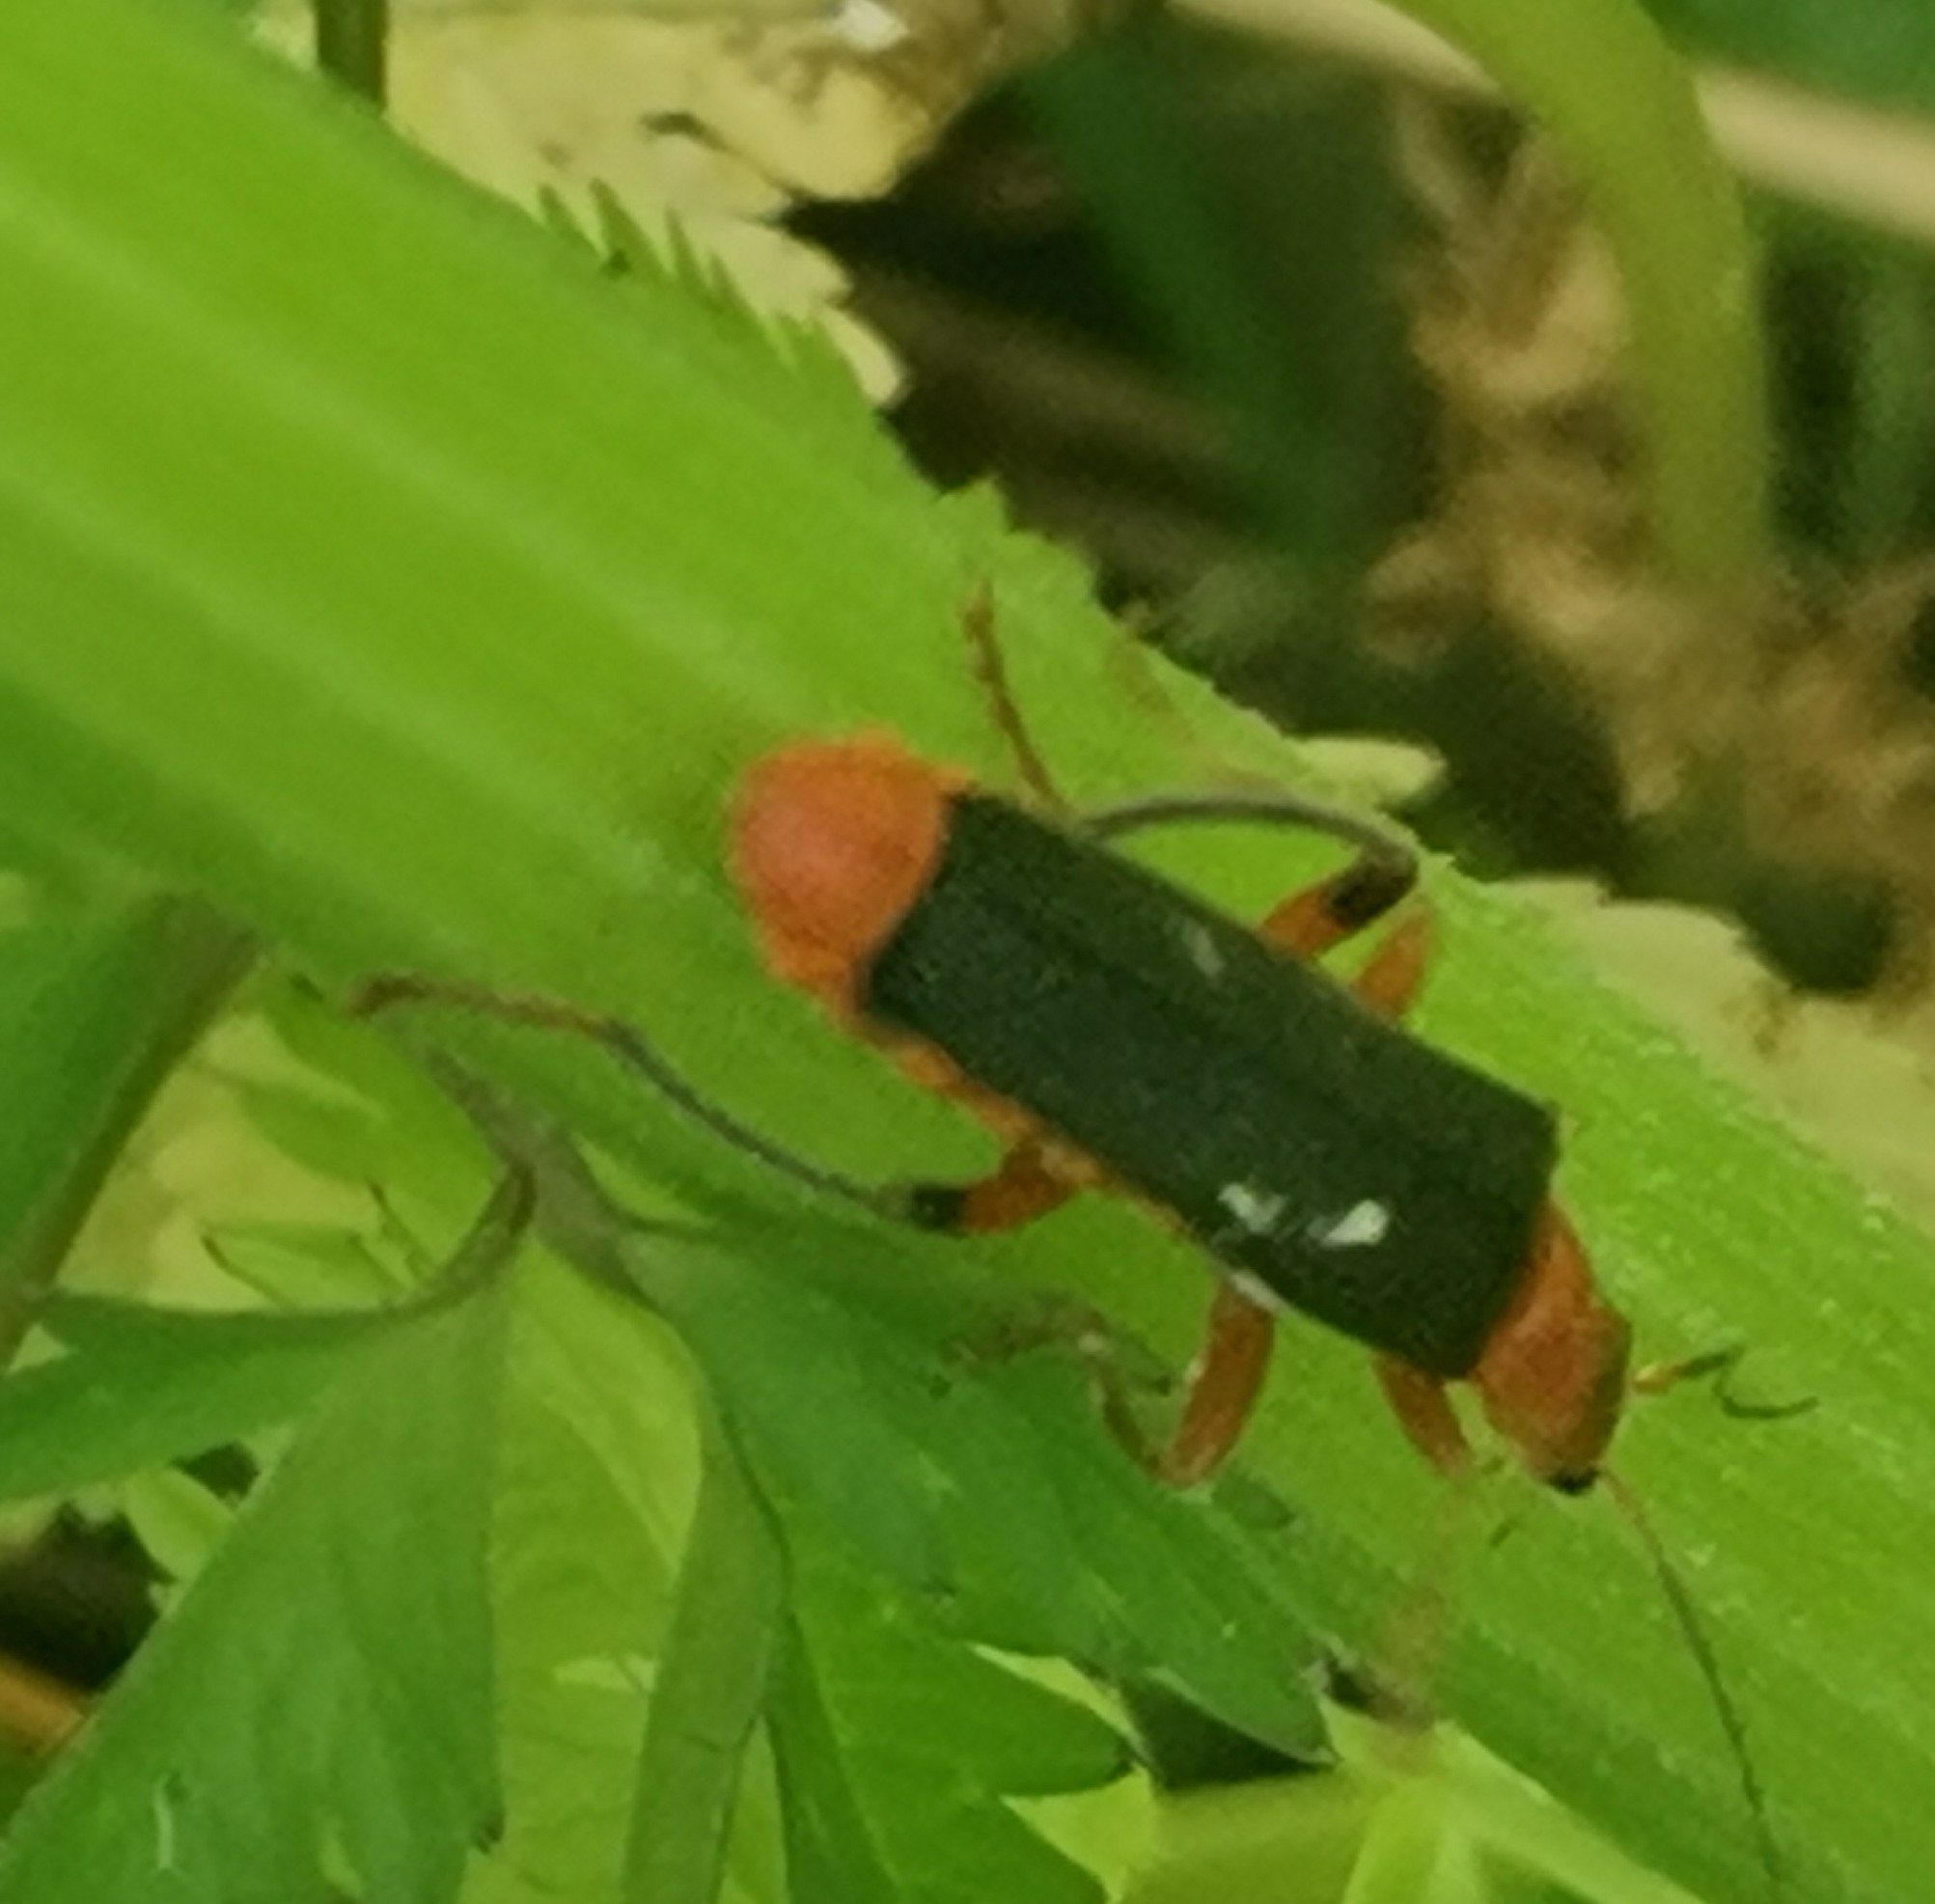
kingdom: Animalia
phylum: Arthropoda
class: Insecta
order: Coleoptera
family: Cantharidae
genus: Cantharis
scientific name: Cantharis livida
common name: Livid soldier beetle
